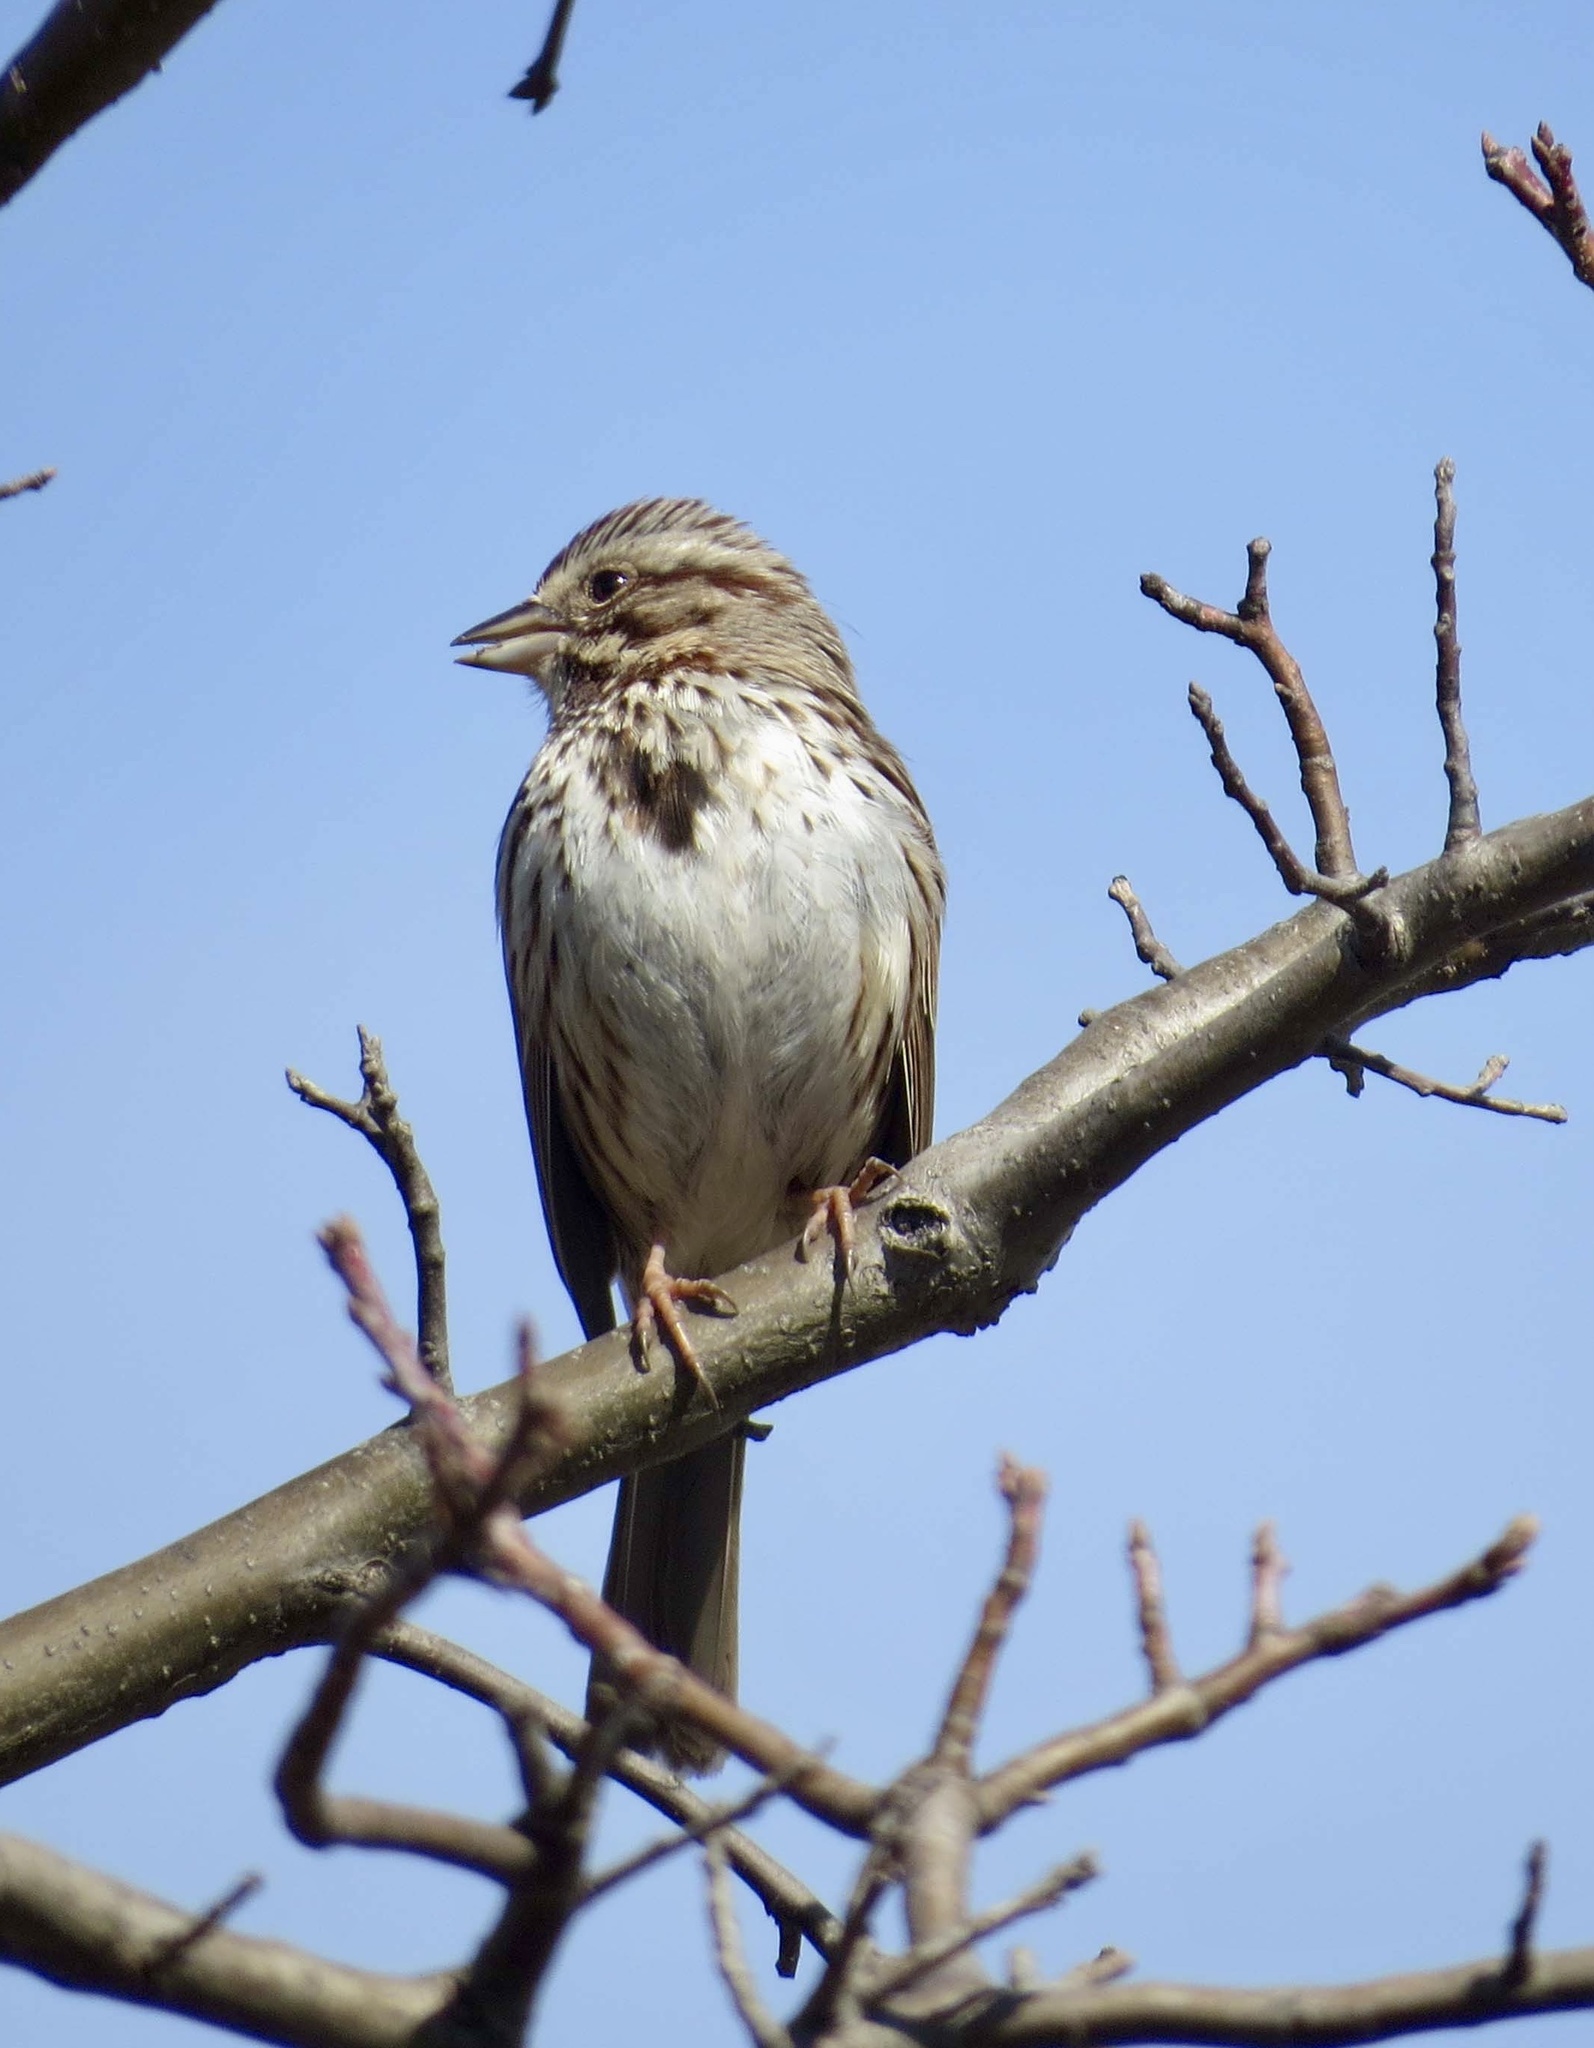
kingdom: Animalia
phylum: Chordata
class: Aves
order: Passeriformes
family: Passerellidae
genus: Melospiza
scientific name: Melospiza melodia
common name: Song sparrow
